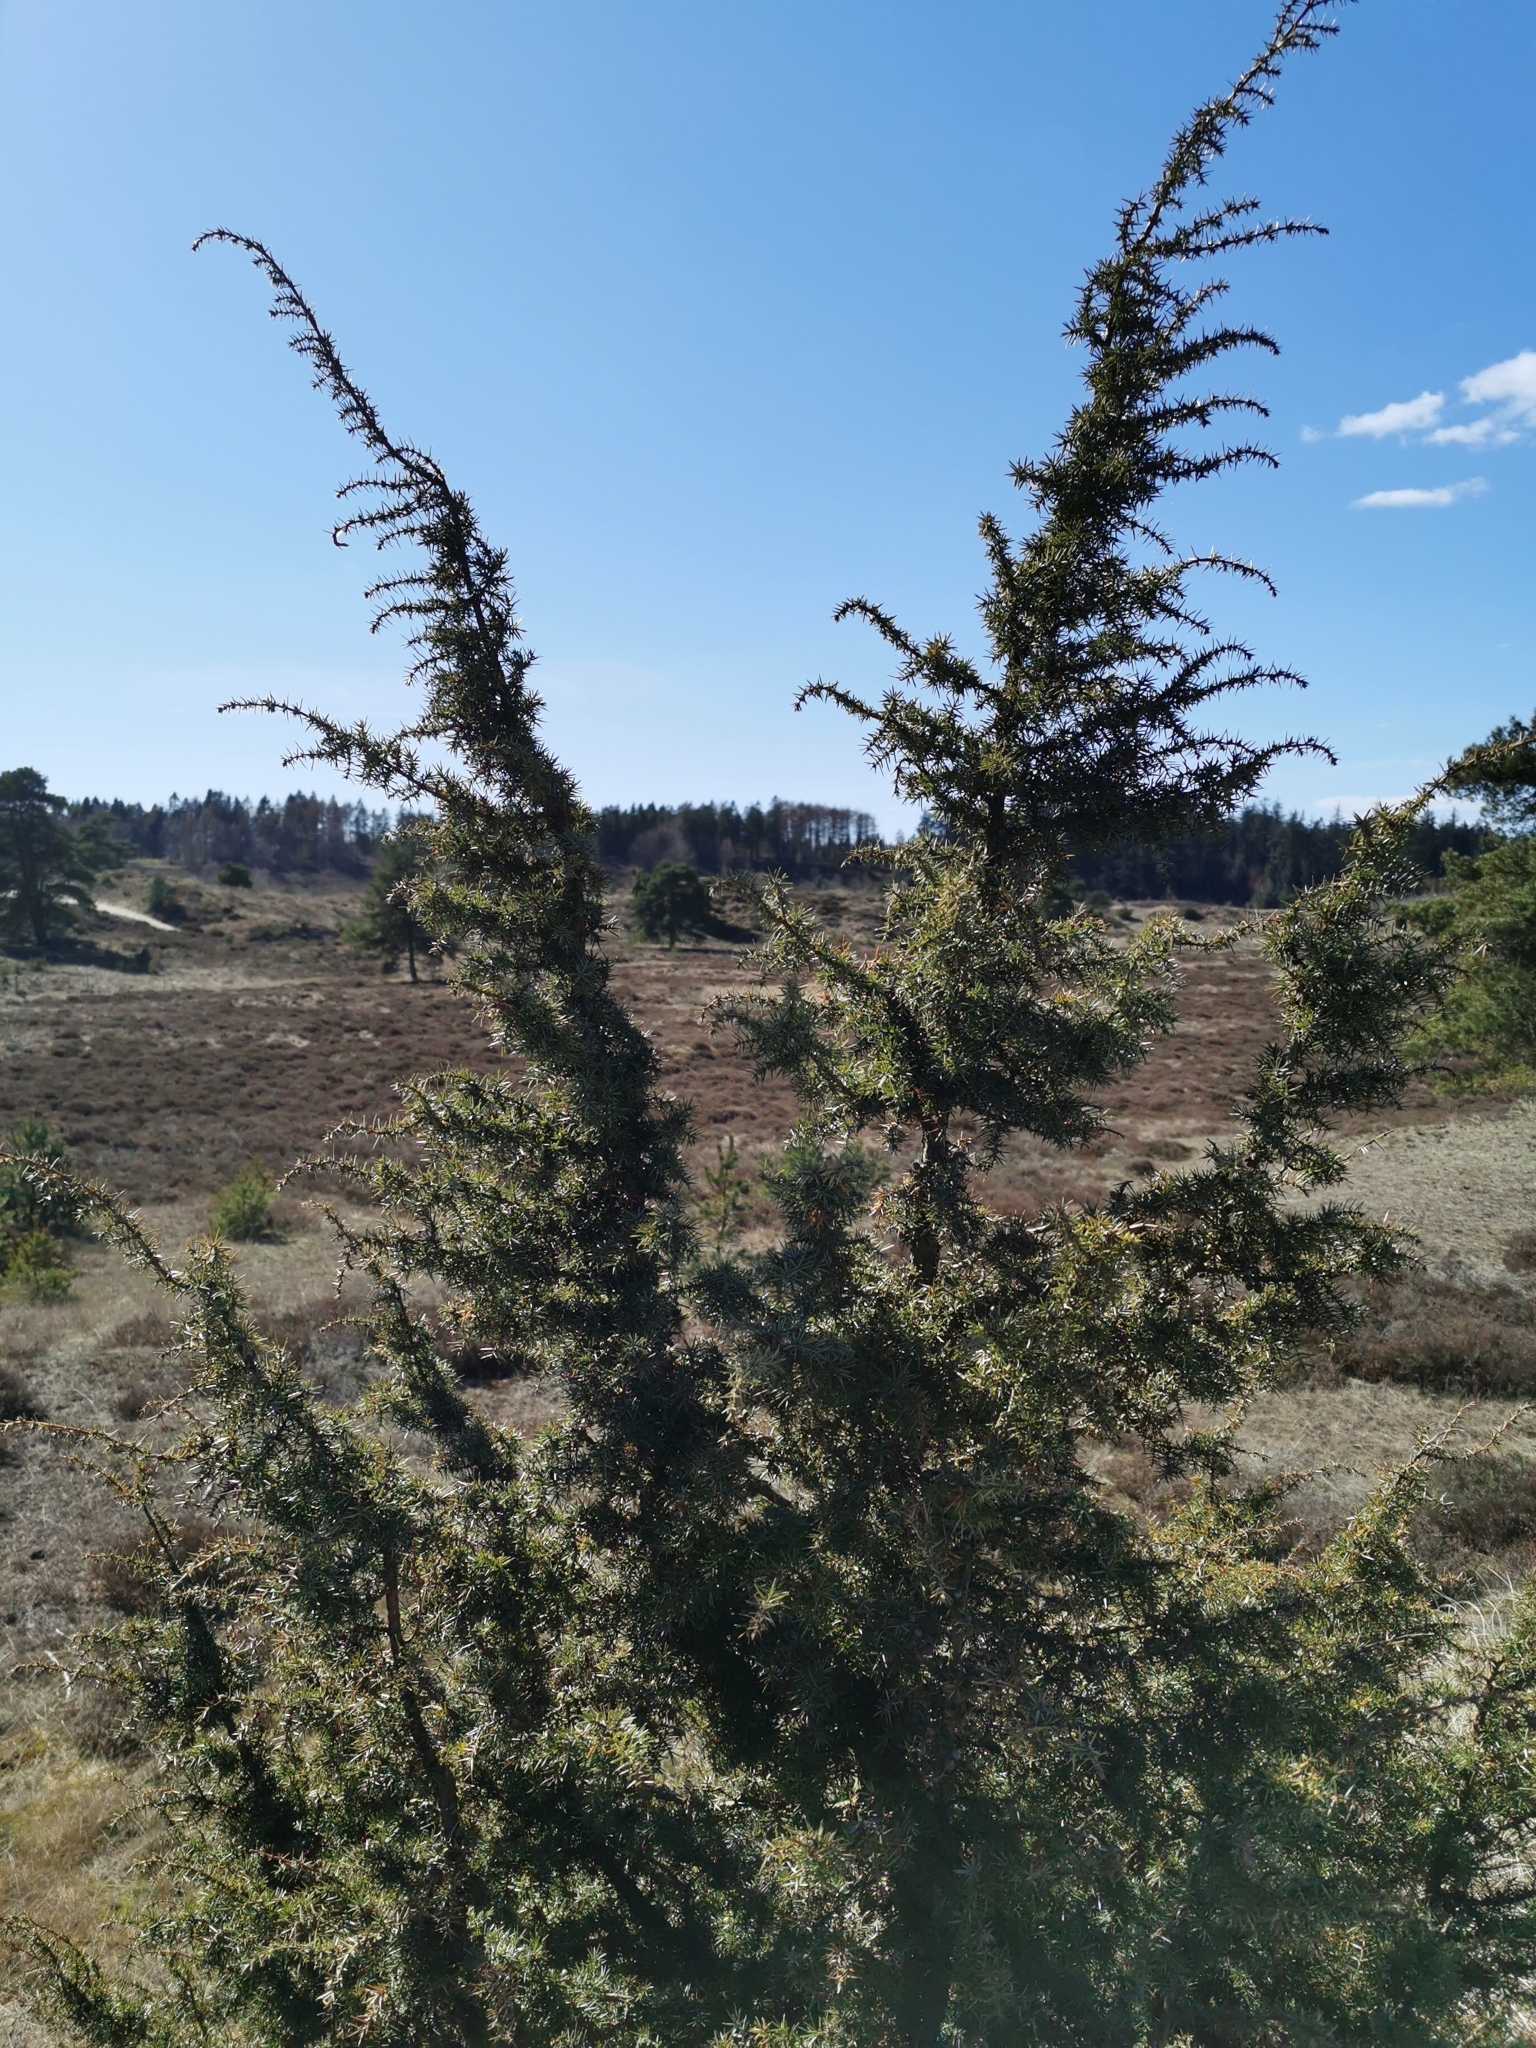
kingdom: Plantae
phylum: Tracheophyta
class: Pinopsida
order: Pinales
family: Cupressaceae
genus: Juniperus
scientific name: Juniperus communis
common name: Common juniper
